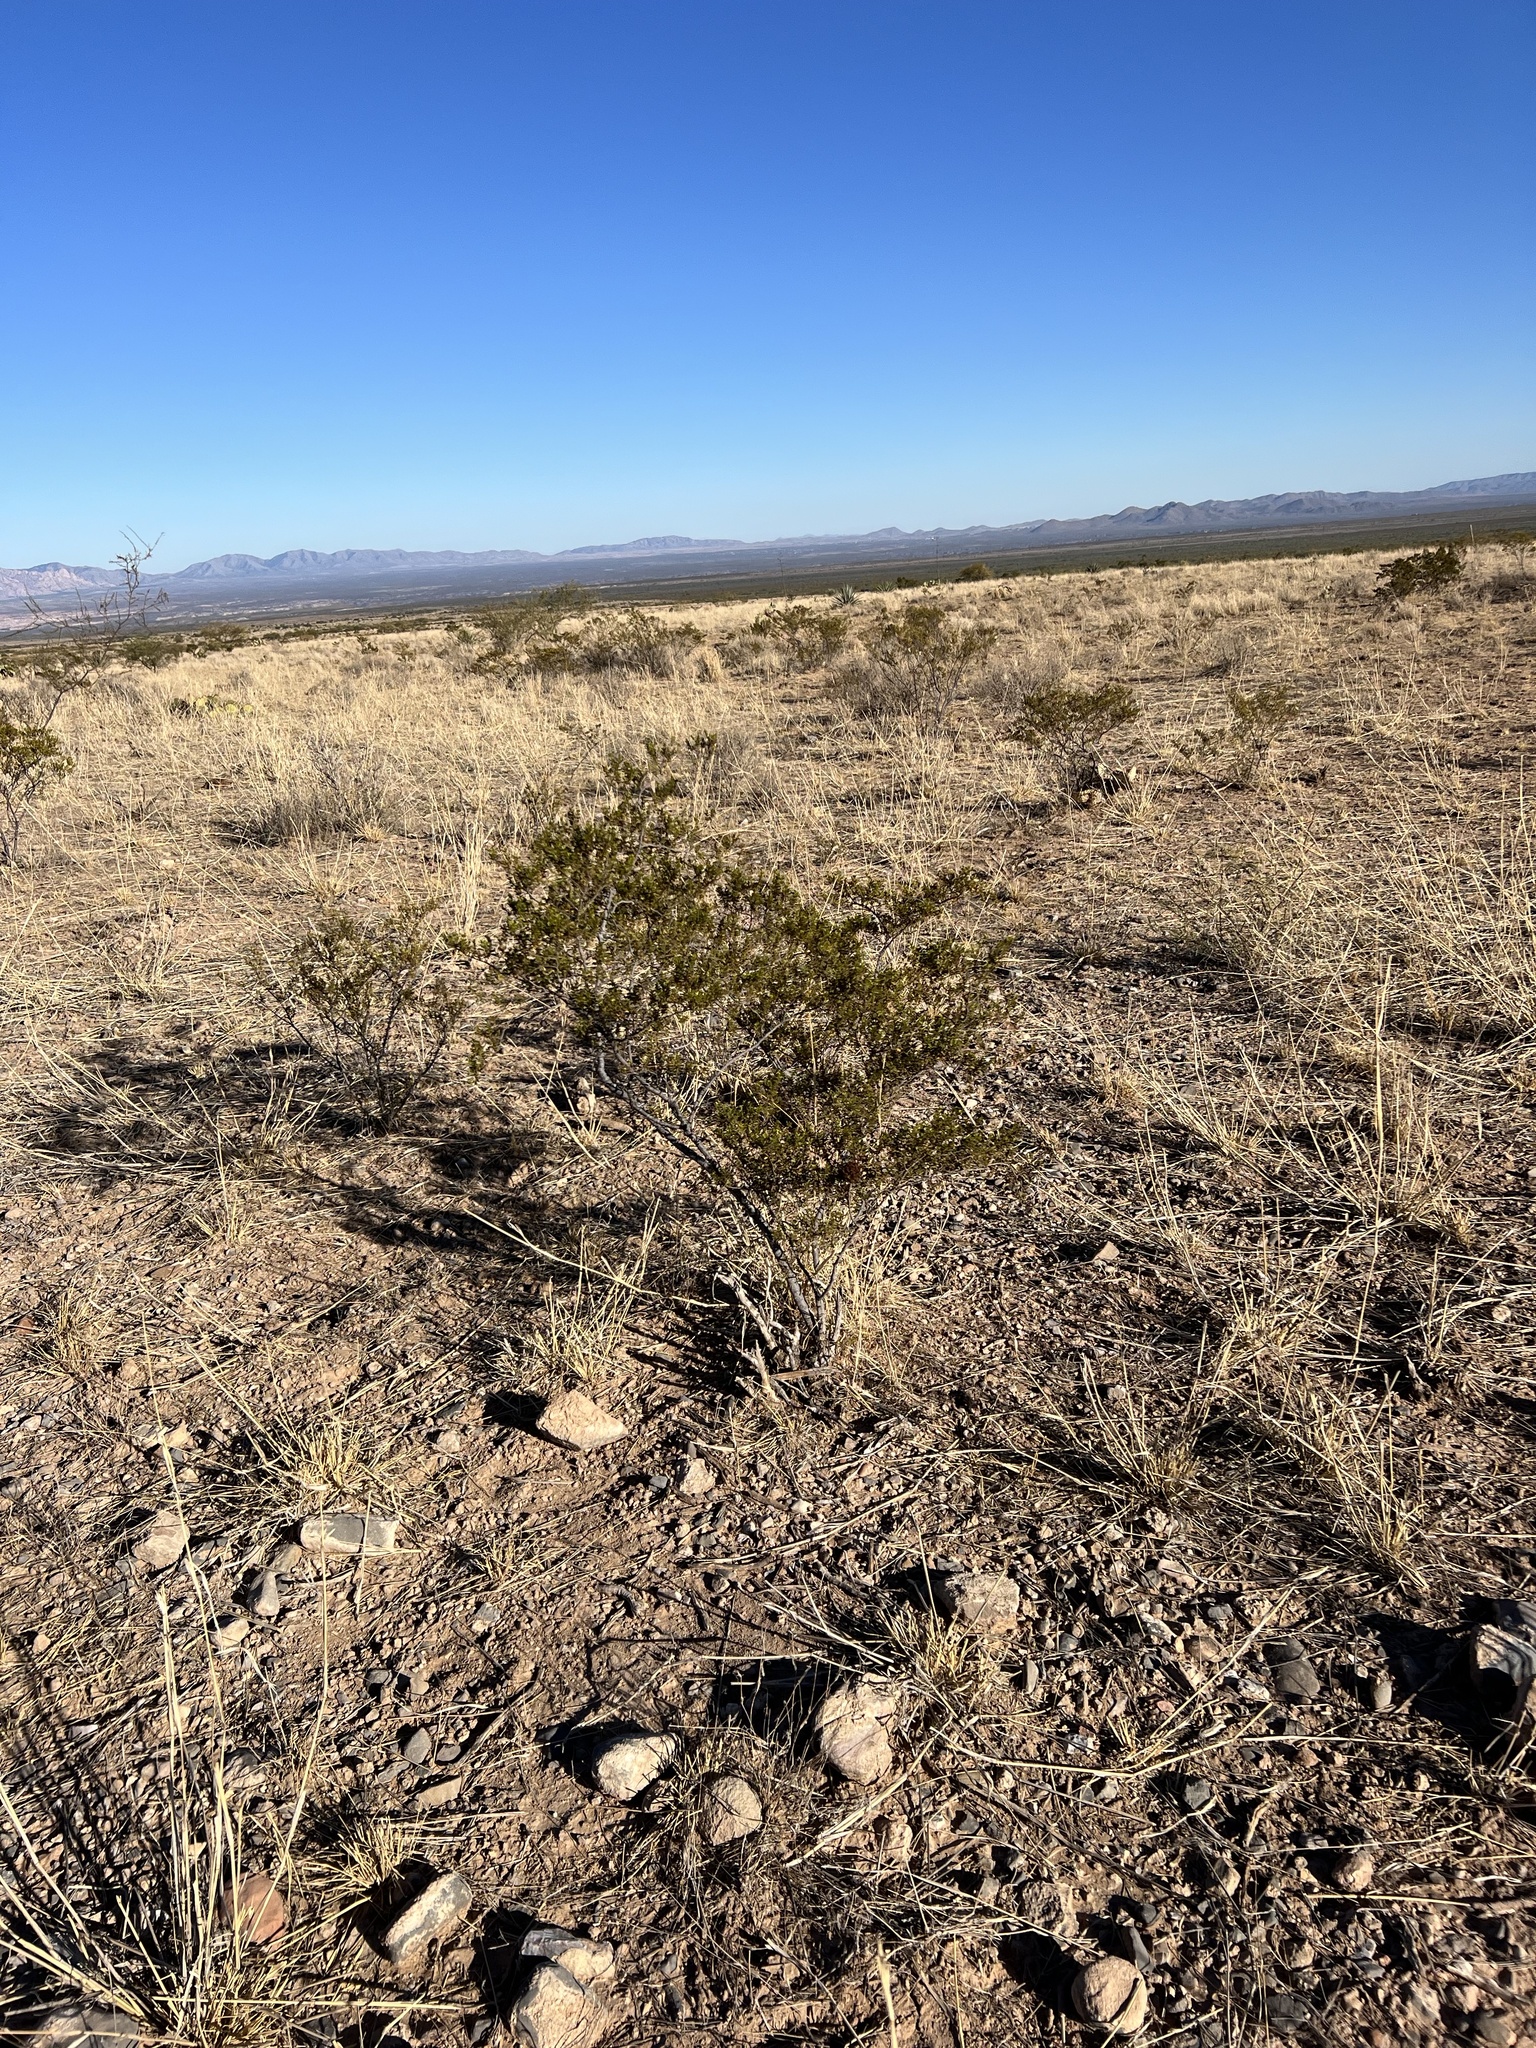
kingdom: Plantae
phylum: Tracheophyta
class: Magnoliopsida
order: Zygophyllales
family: Zygophyllaceae
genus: Larrea
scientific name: Larrea tridentata
